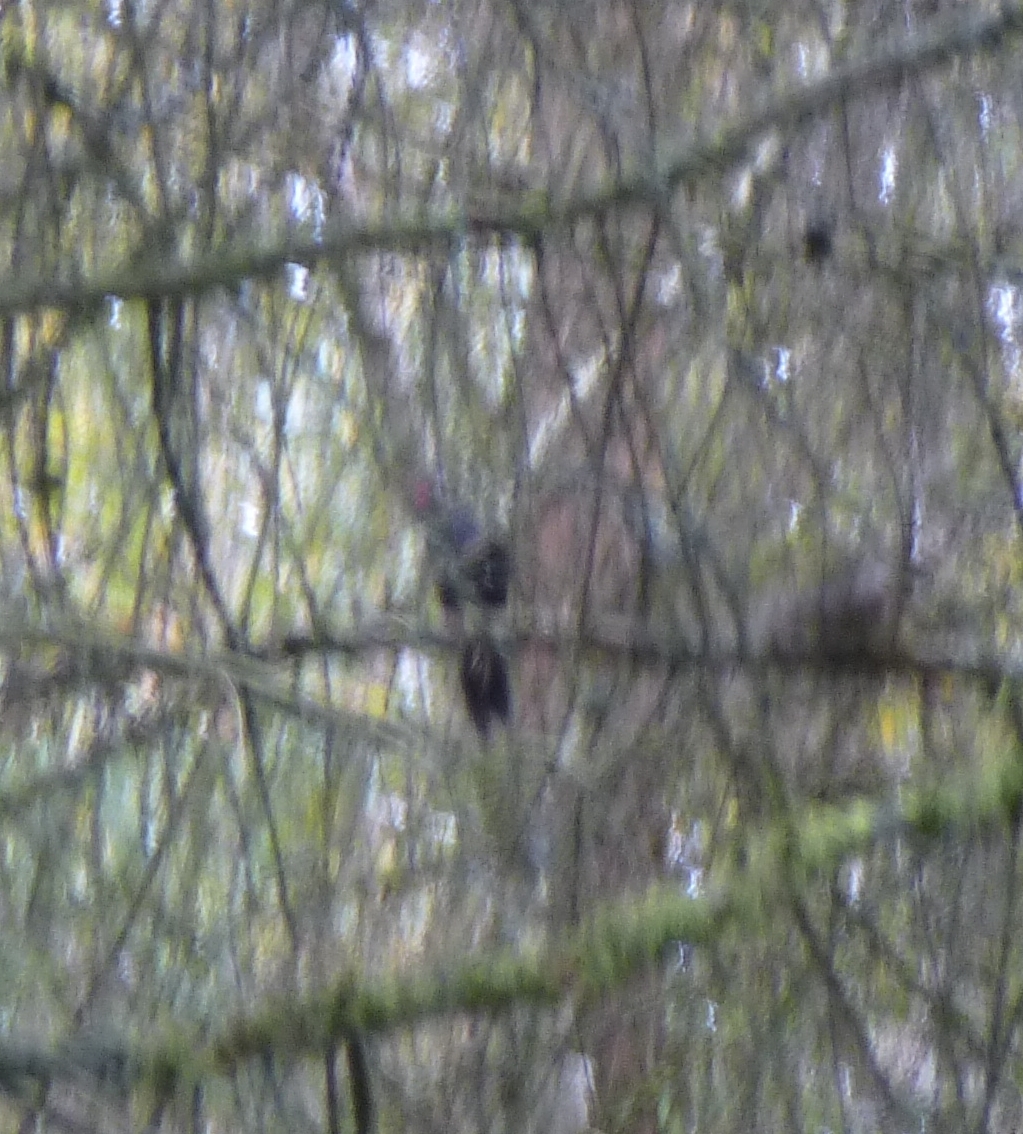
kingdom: Animalia
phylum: Chordata
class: Aves
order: Piciformes
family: Picidae
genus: Dryocopus
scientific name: Dryocopus martius
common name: Black woodpecker
